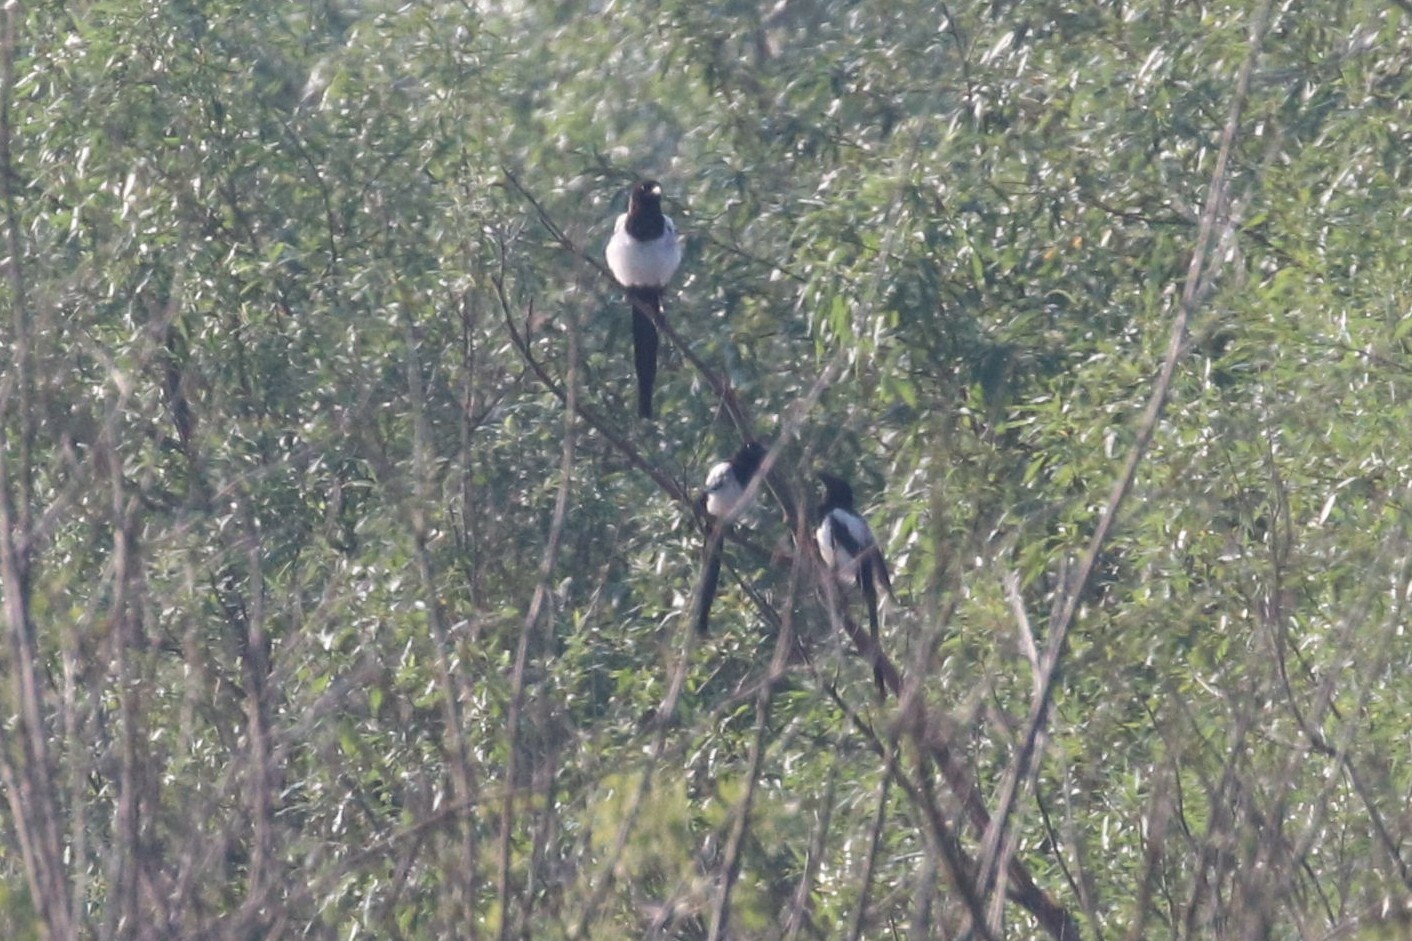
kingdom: Animalia
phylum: Chordata
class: Aves
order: Passeriformes
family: Corvidae
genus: Pica
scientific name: Pica pica
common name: Eurasian magpie
